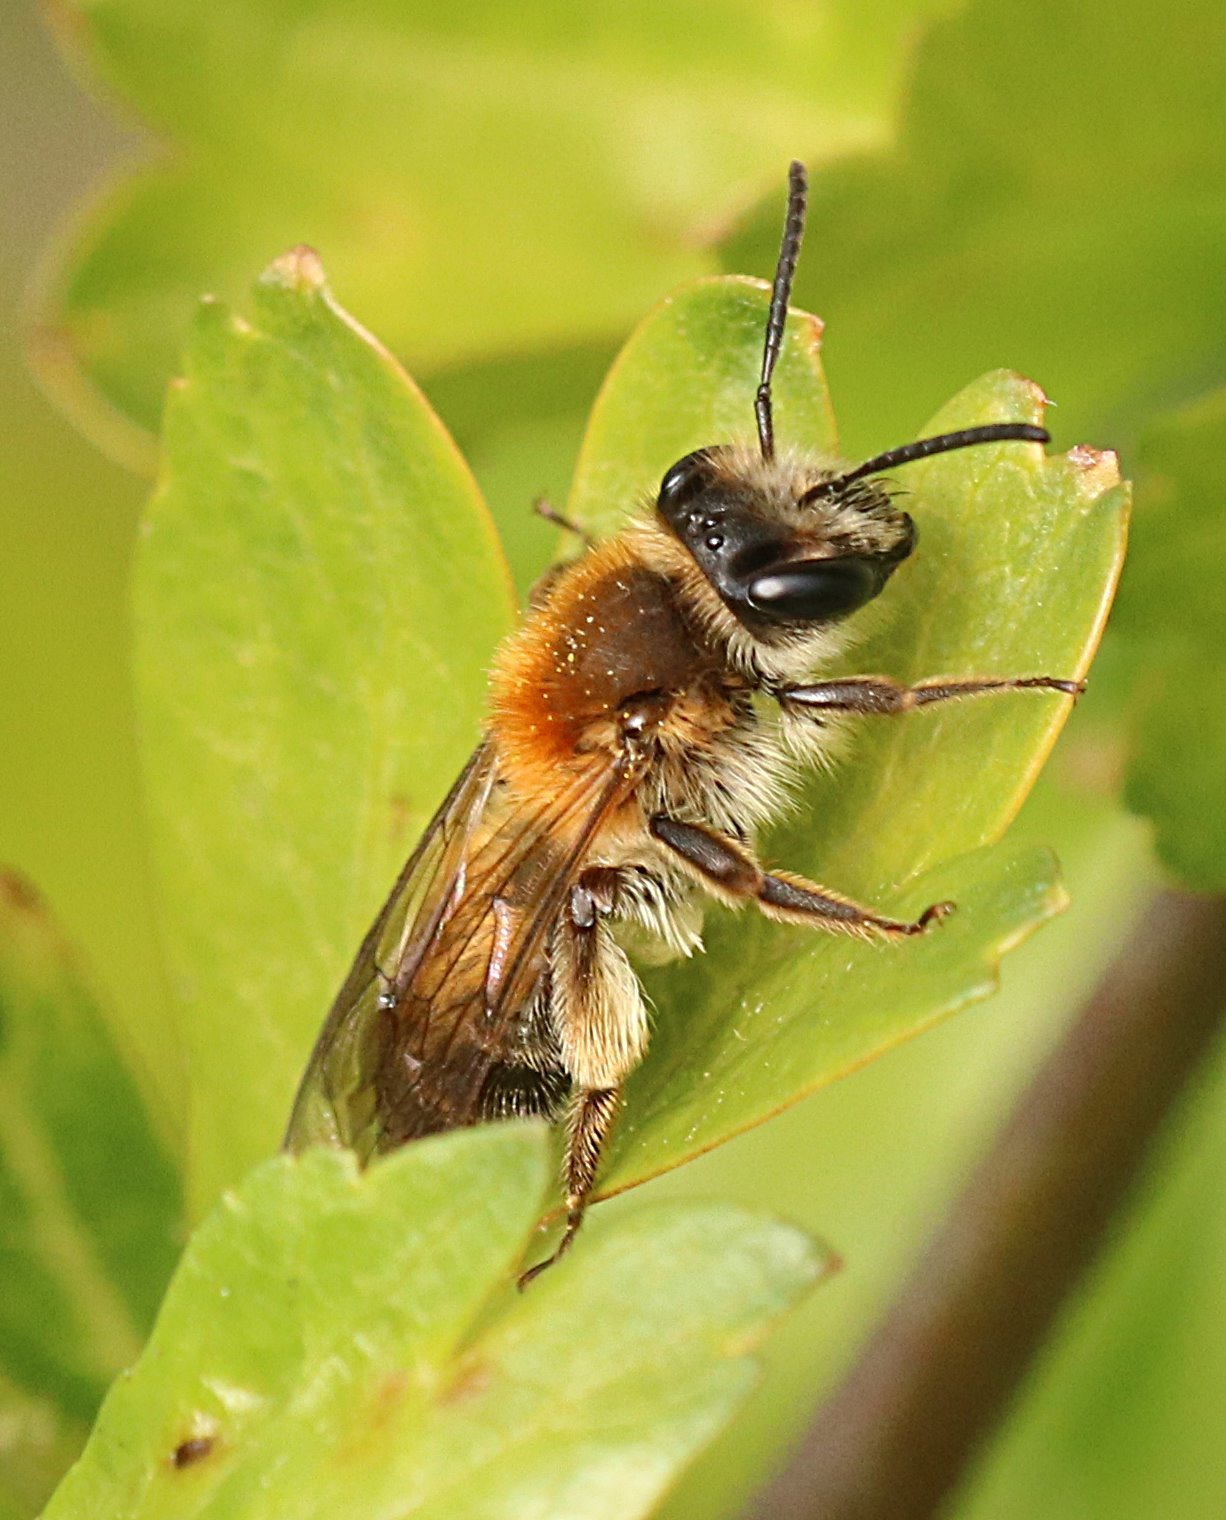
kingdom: Animalia
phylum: Arthropoda
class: Insecta
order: Hymenoptera
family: Andrenidae
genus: Andrena
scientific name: Andrena helvola
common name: Coppice mining bee
